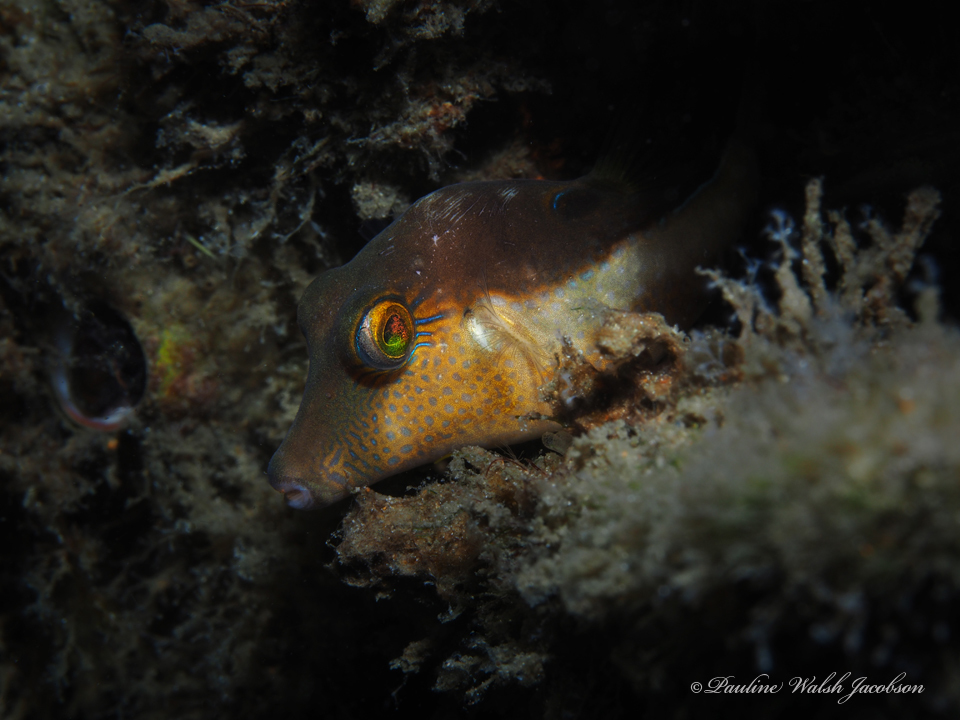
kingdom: Animalia
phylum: Chordata
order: Tetraodontiformes
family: Tetraodontidae
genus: Canthigaster
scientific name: Canthigaster rostrata
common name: Caribbean sharpnose-puffer
